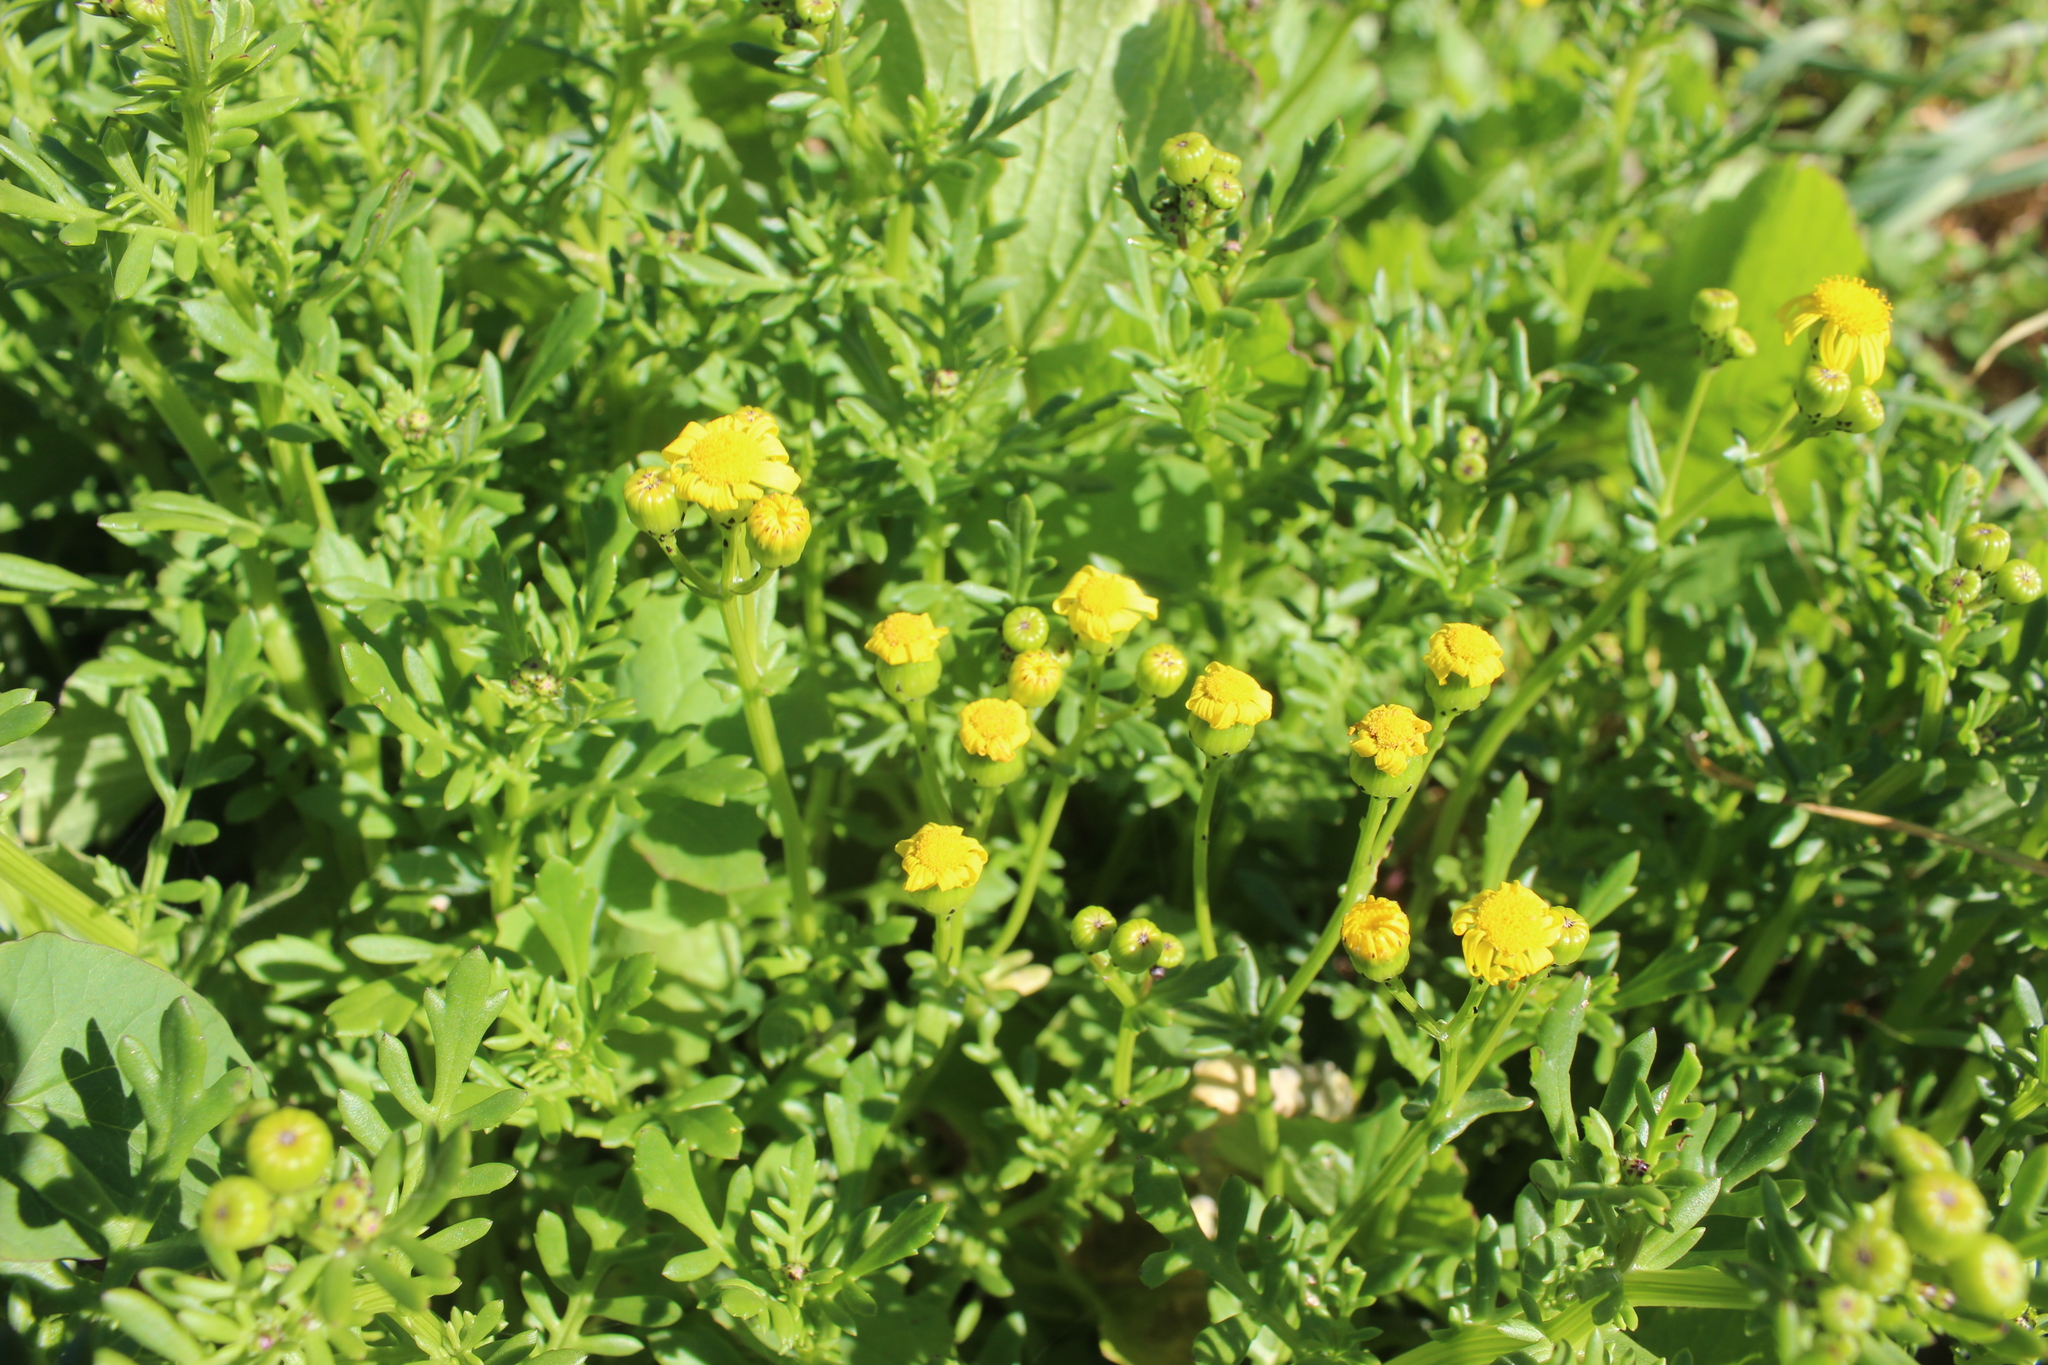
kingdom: Plantae
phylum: Tracheophyta
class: Magnoliopsida
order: Asterales
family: Asteraceae
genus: Senecio
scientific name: Senecio lautus
